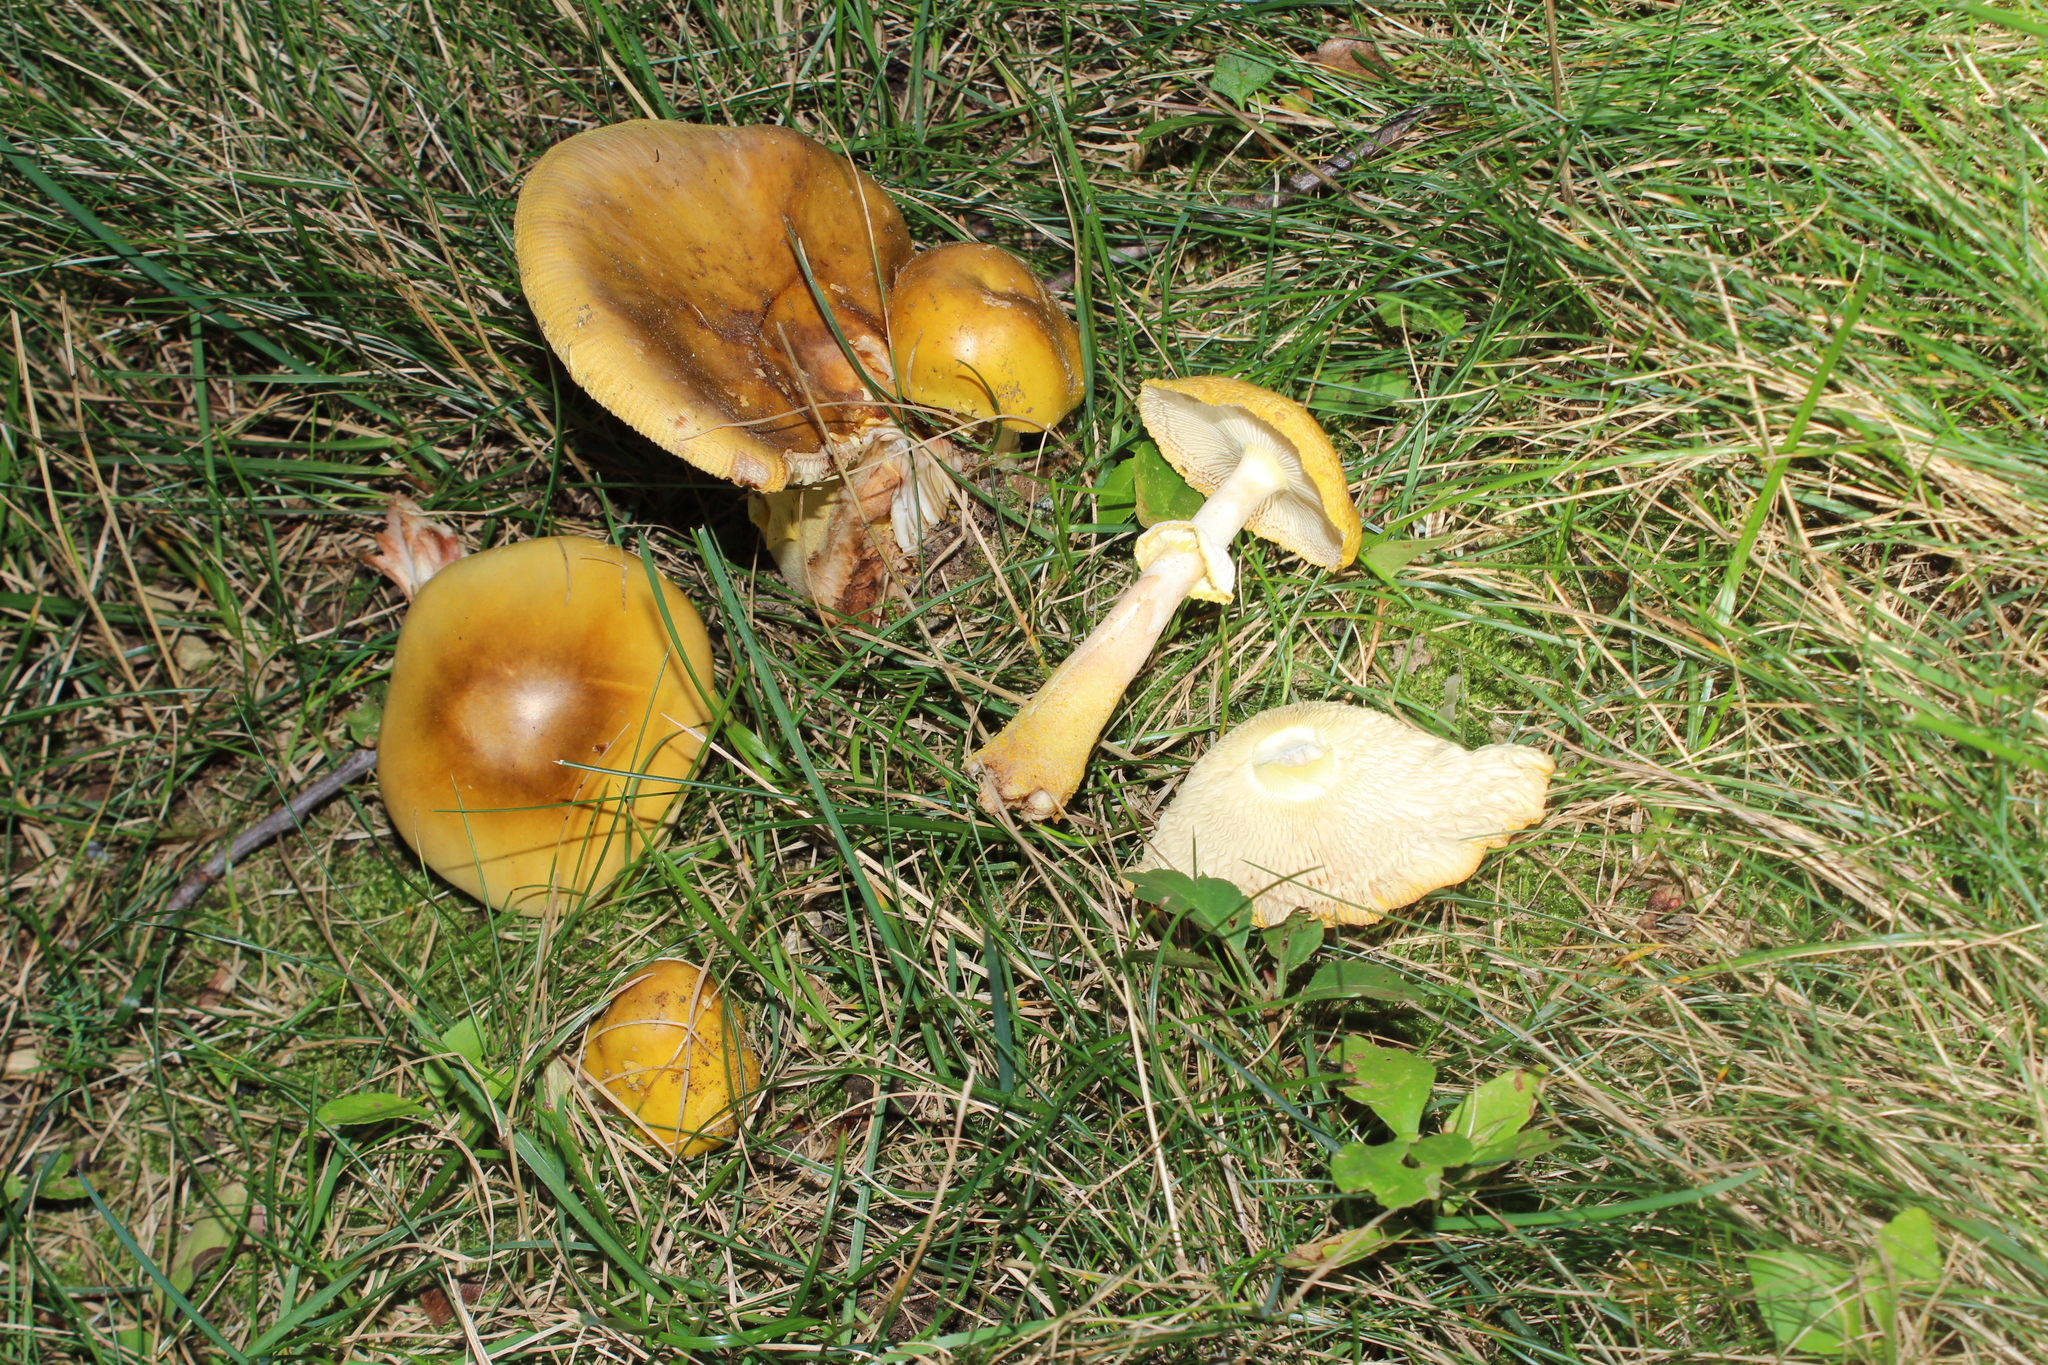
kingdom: Fungi
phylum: Basidiomycota
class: Agaricomycetes
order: Agaricales
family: Amanitaceae
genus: Amanita
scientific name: Amanita flavorubens
